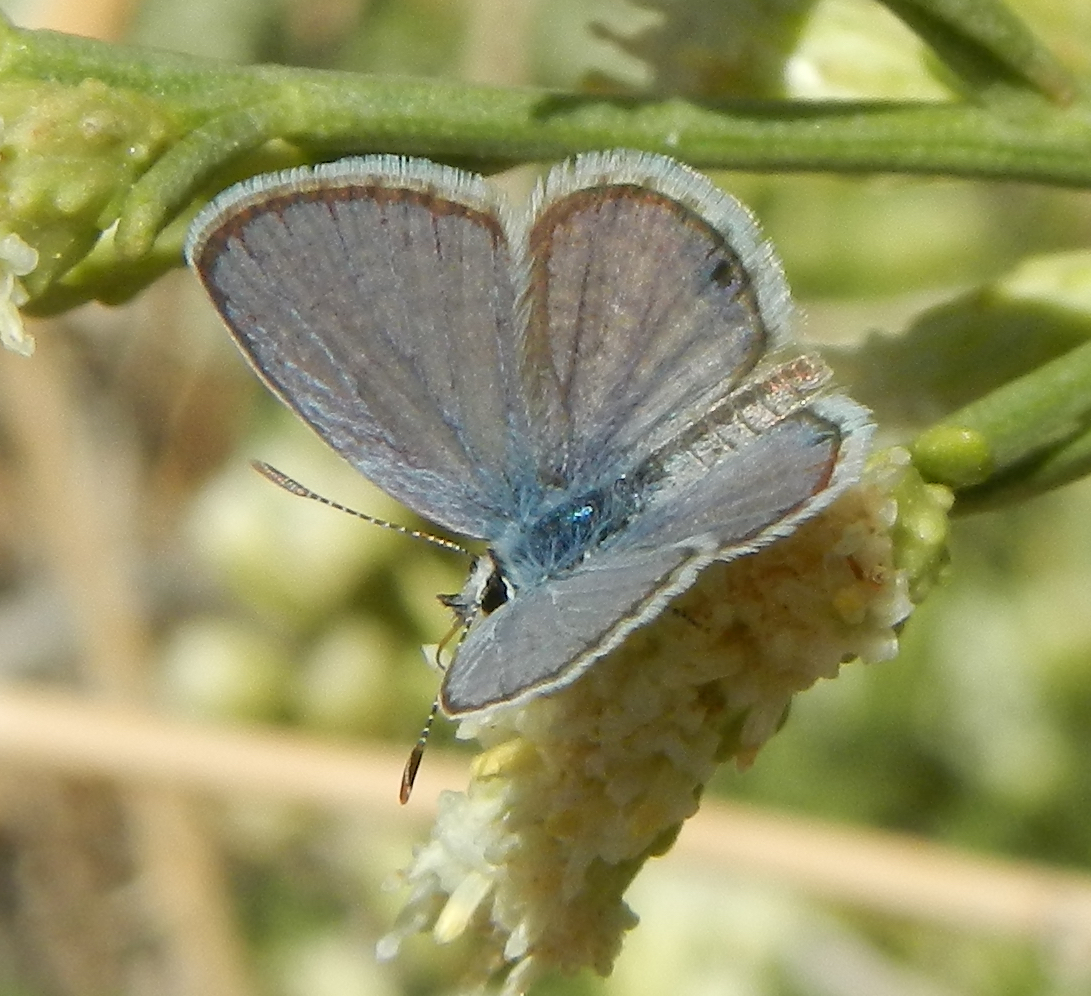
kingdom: Animalia
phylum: Arthropoda
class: Insecta
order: Lepidoptera
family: Lycaenidae
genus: Hemiargus
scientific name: Hemiargus ceraunus
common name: Ceraunus blue
